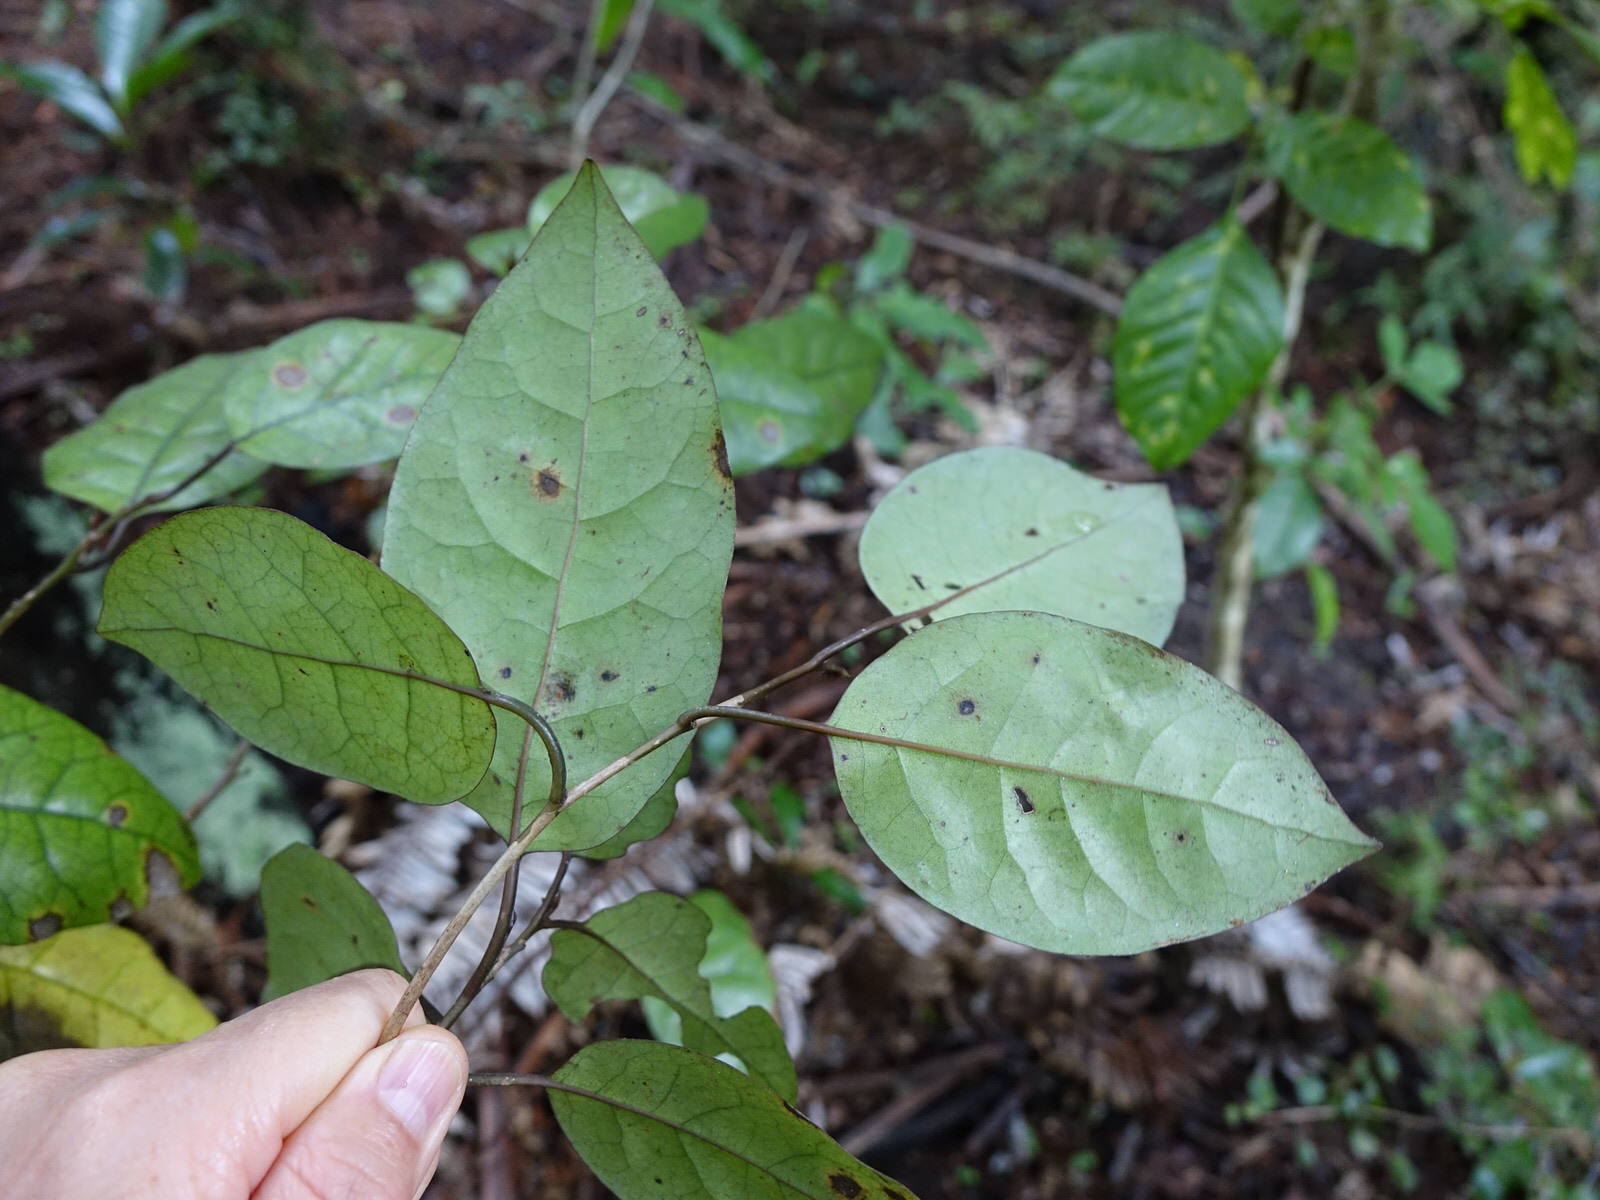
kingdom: Plantae
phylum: Tracheophyta
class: Magnoliopsida
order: Laurales
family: Lauraceae
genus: Litsea
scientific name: Litsea calicaris
